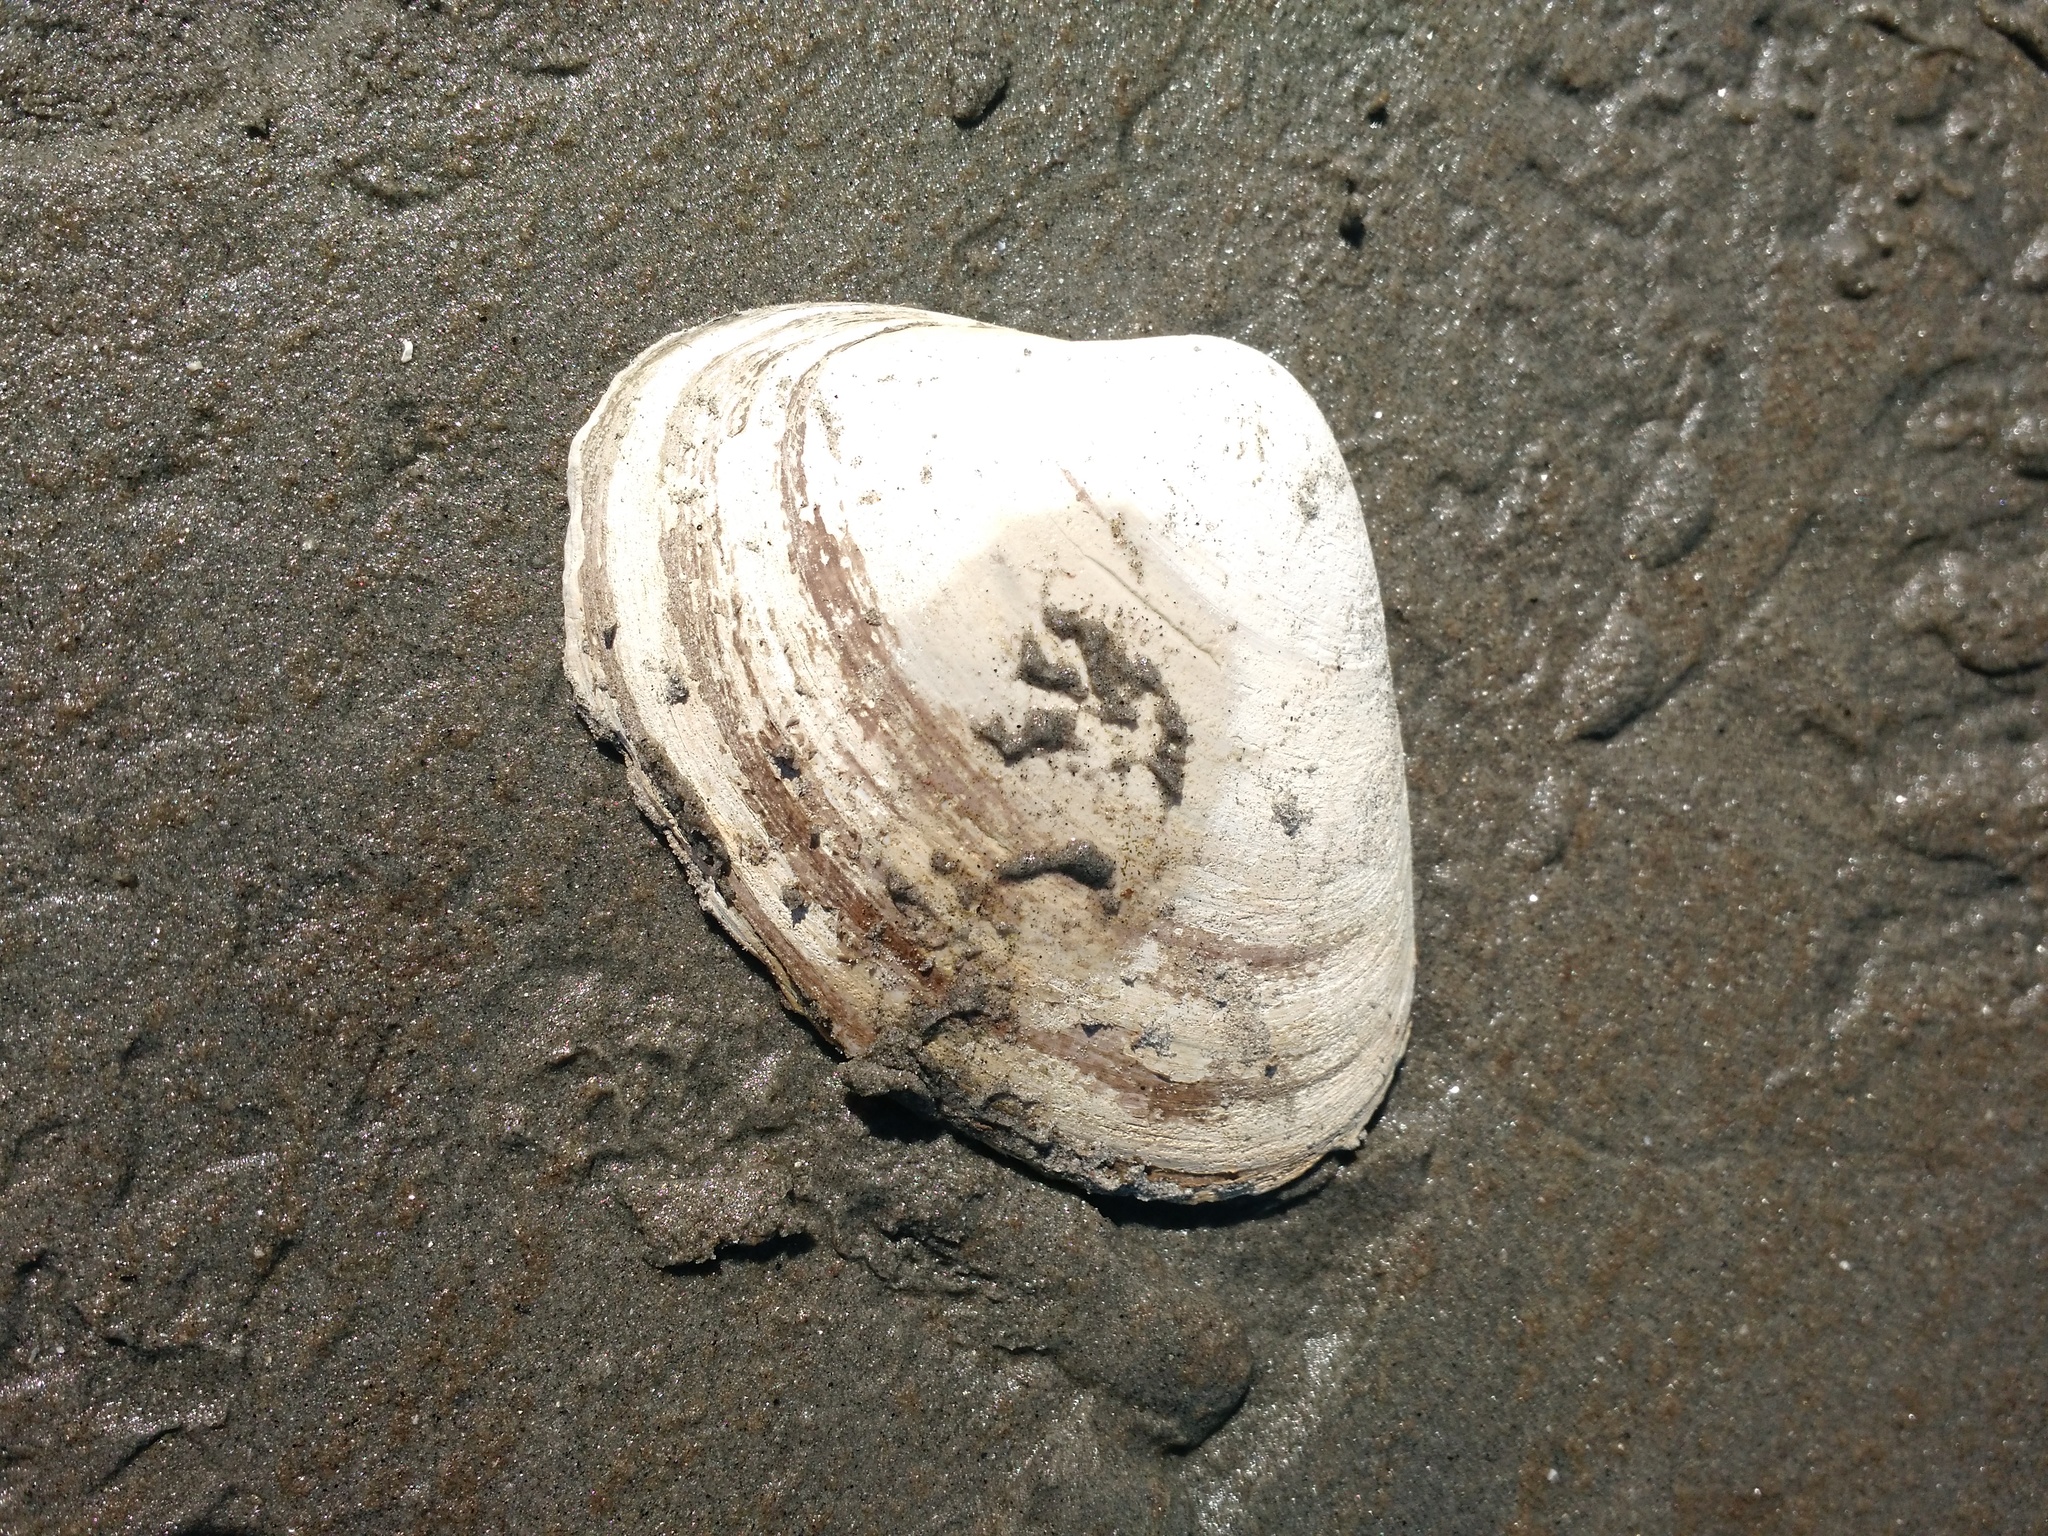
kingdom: Animalia
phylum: Mollusca
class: Bivalvia
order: Venerida
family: Mactridae
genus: Spisula
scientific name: Spisula solidissima
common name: Atlantic surf clam
